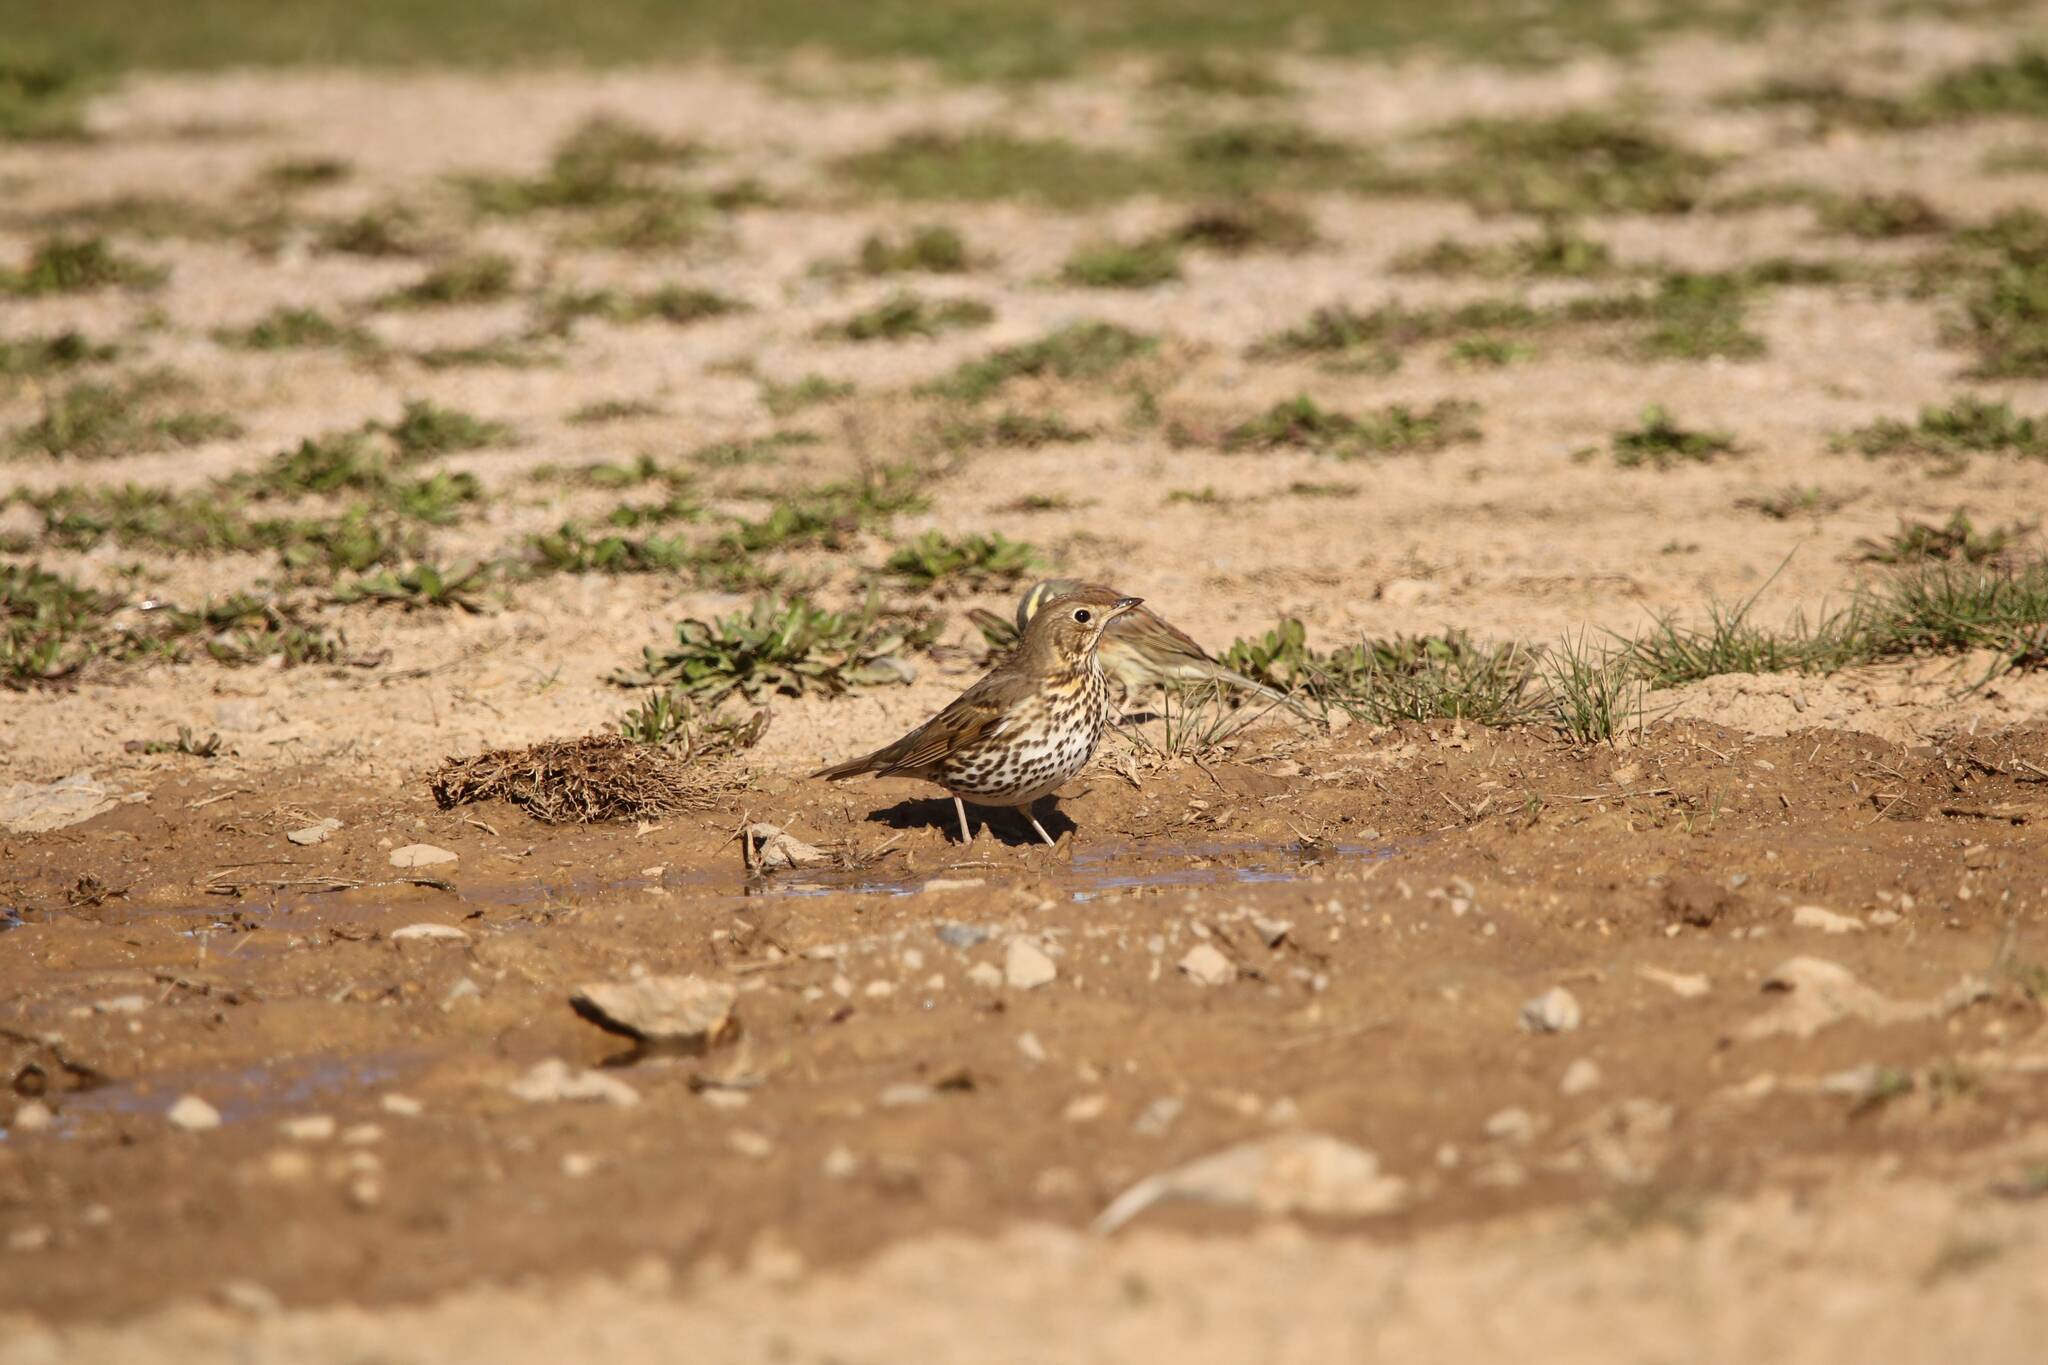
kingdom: Animalia
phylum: Chordata
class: Aves
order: Passeriformes
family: Turdidae
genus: Turdus
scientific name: Turdus philomelos
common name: Song thrush
